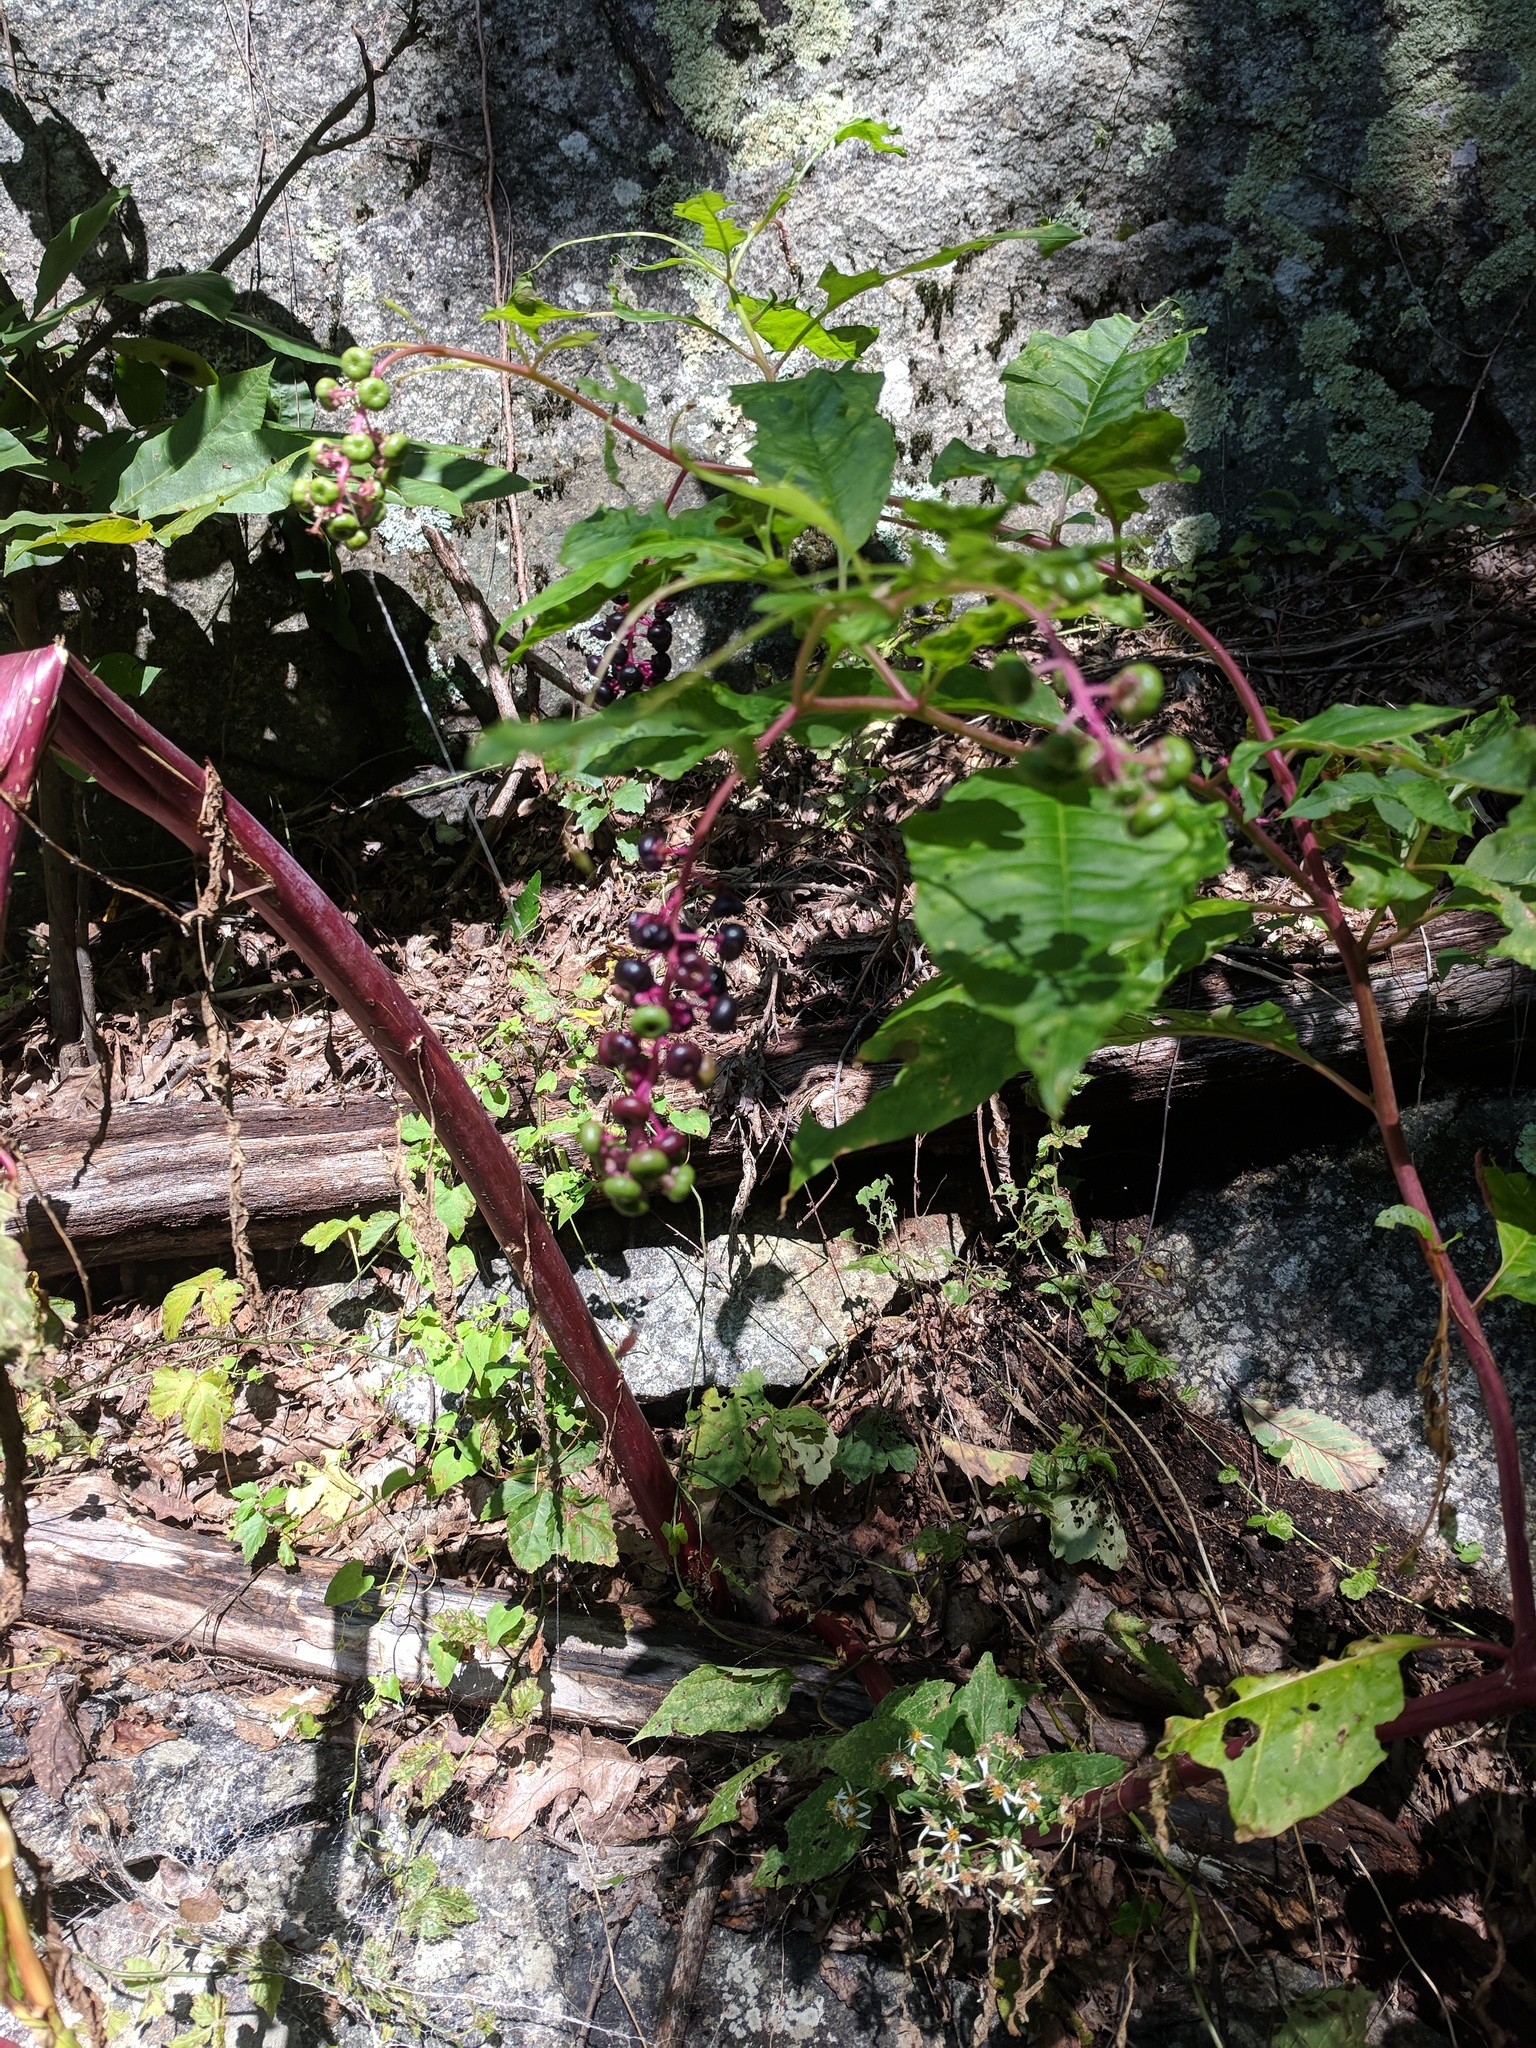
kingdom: Plantae
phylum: Tracheophyta
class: Magnoliopsida
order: Caryophyllales
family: Phytolaccaceae
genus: Phytolacca
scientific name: Phytolacca americana
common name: American pokeweed
